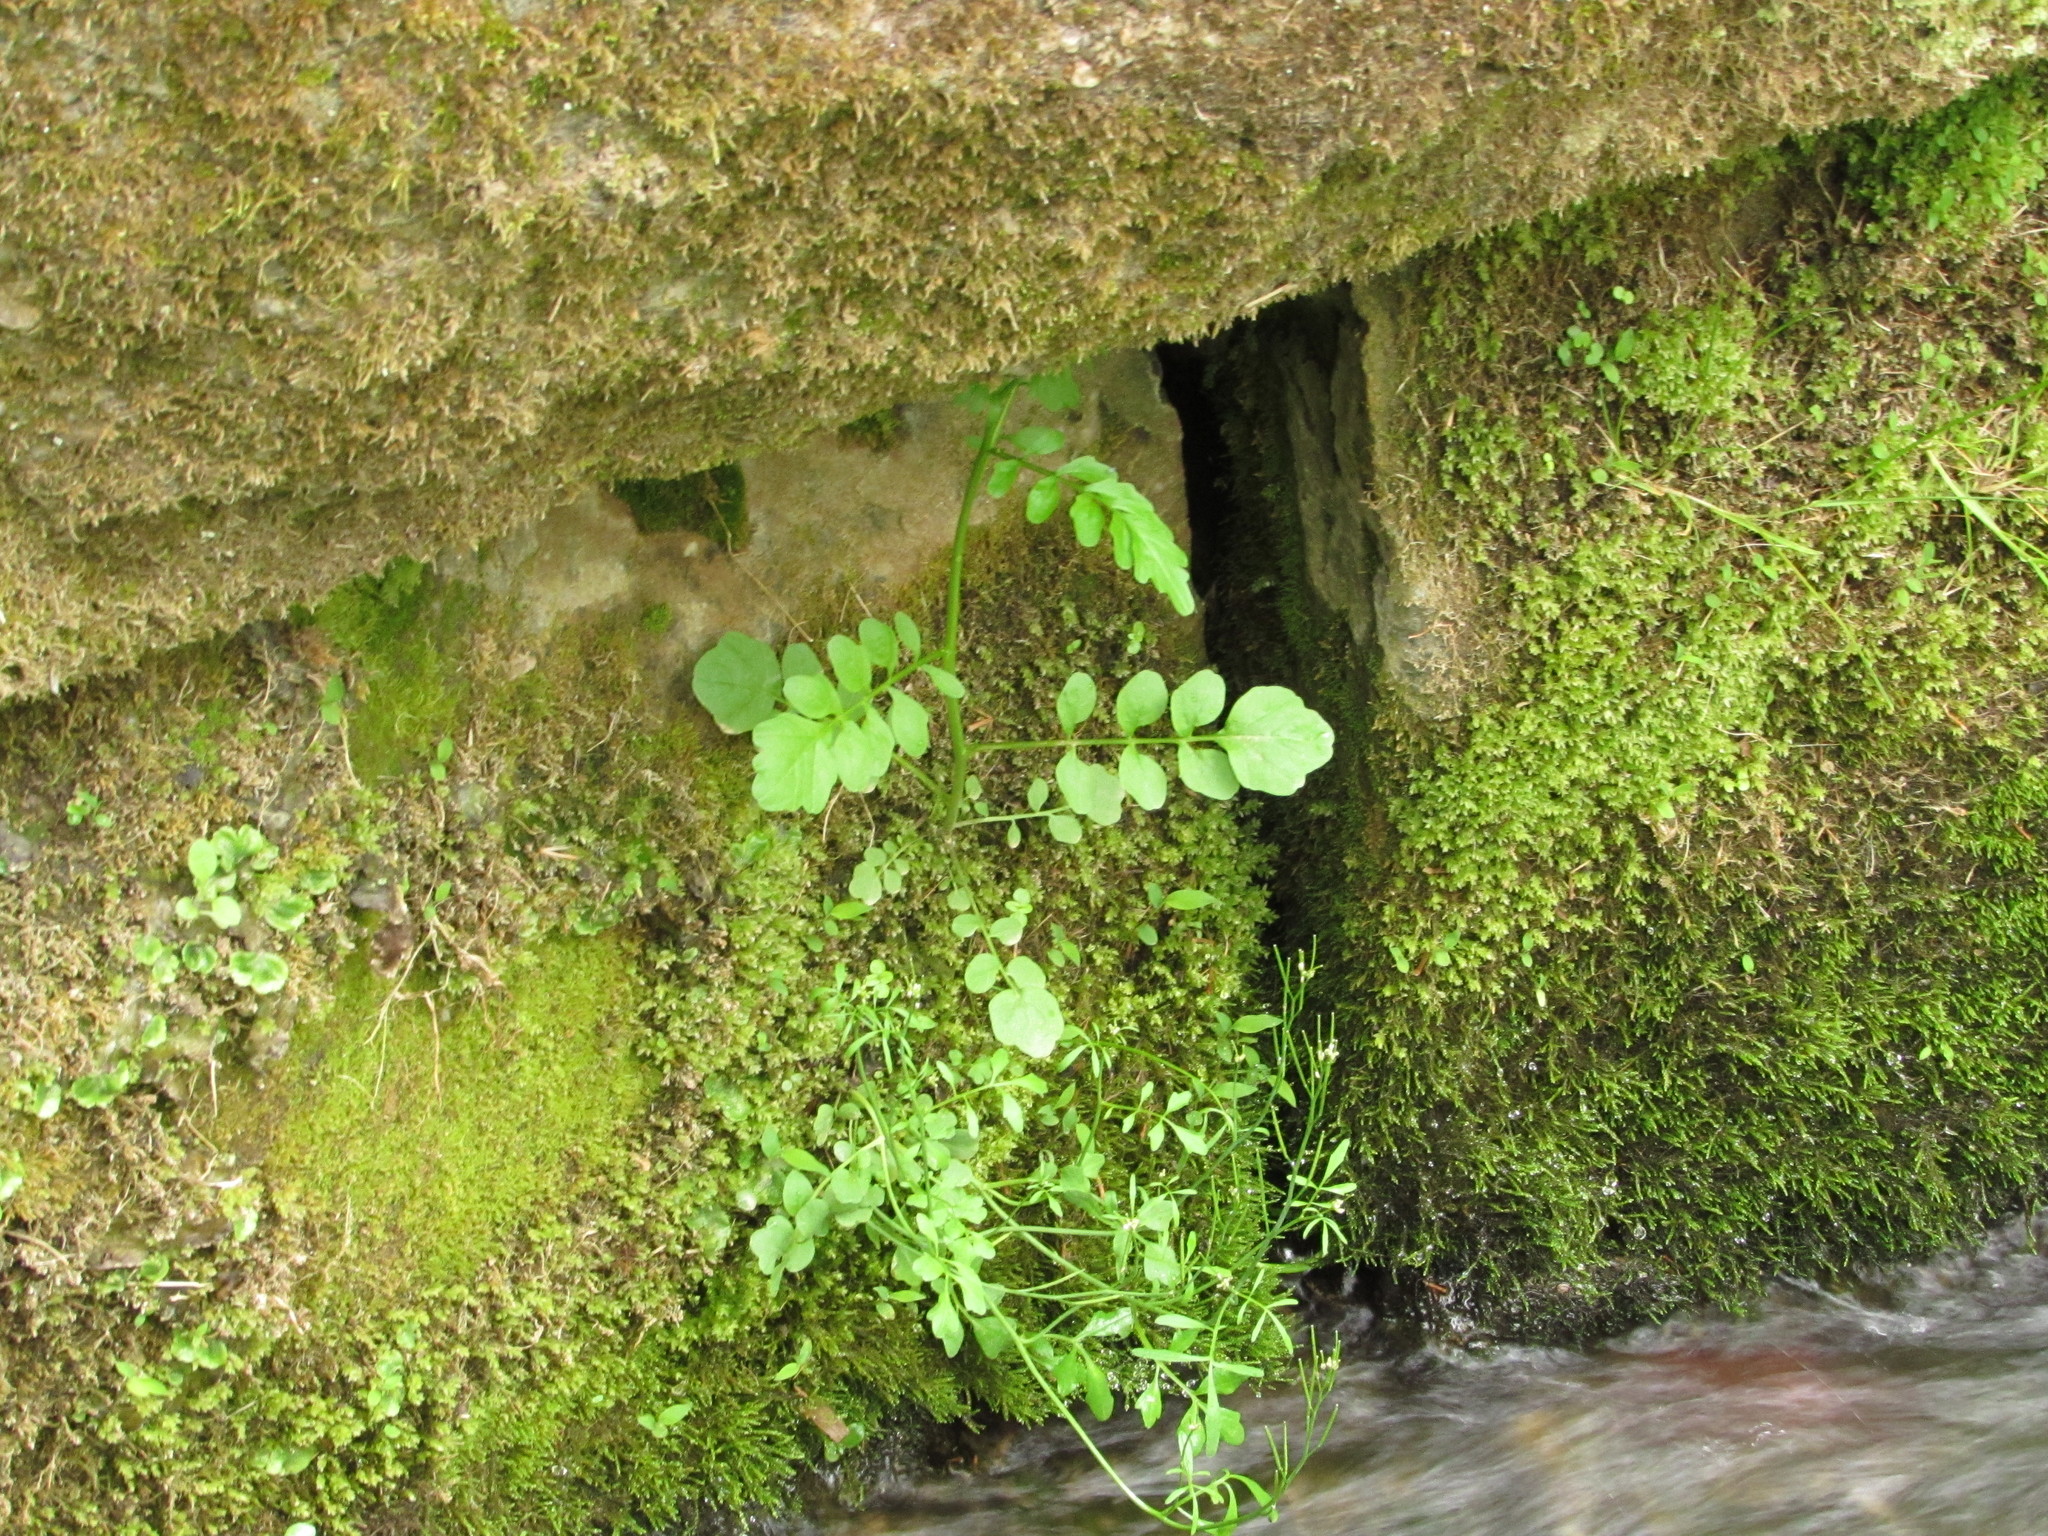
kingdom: Plantae
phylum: Tracheophyta
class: Magnoliopsida
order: Brassicales
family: Brassicaceae
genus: Cardamine
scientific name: Cardamine pensylvanica
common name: Pennsylvania bittercress
